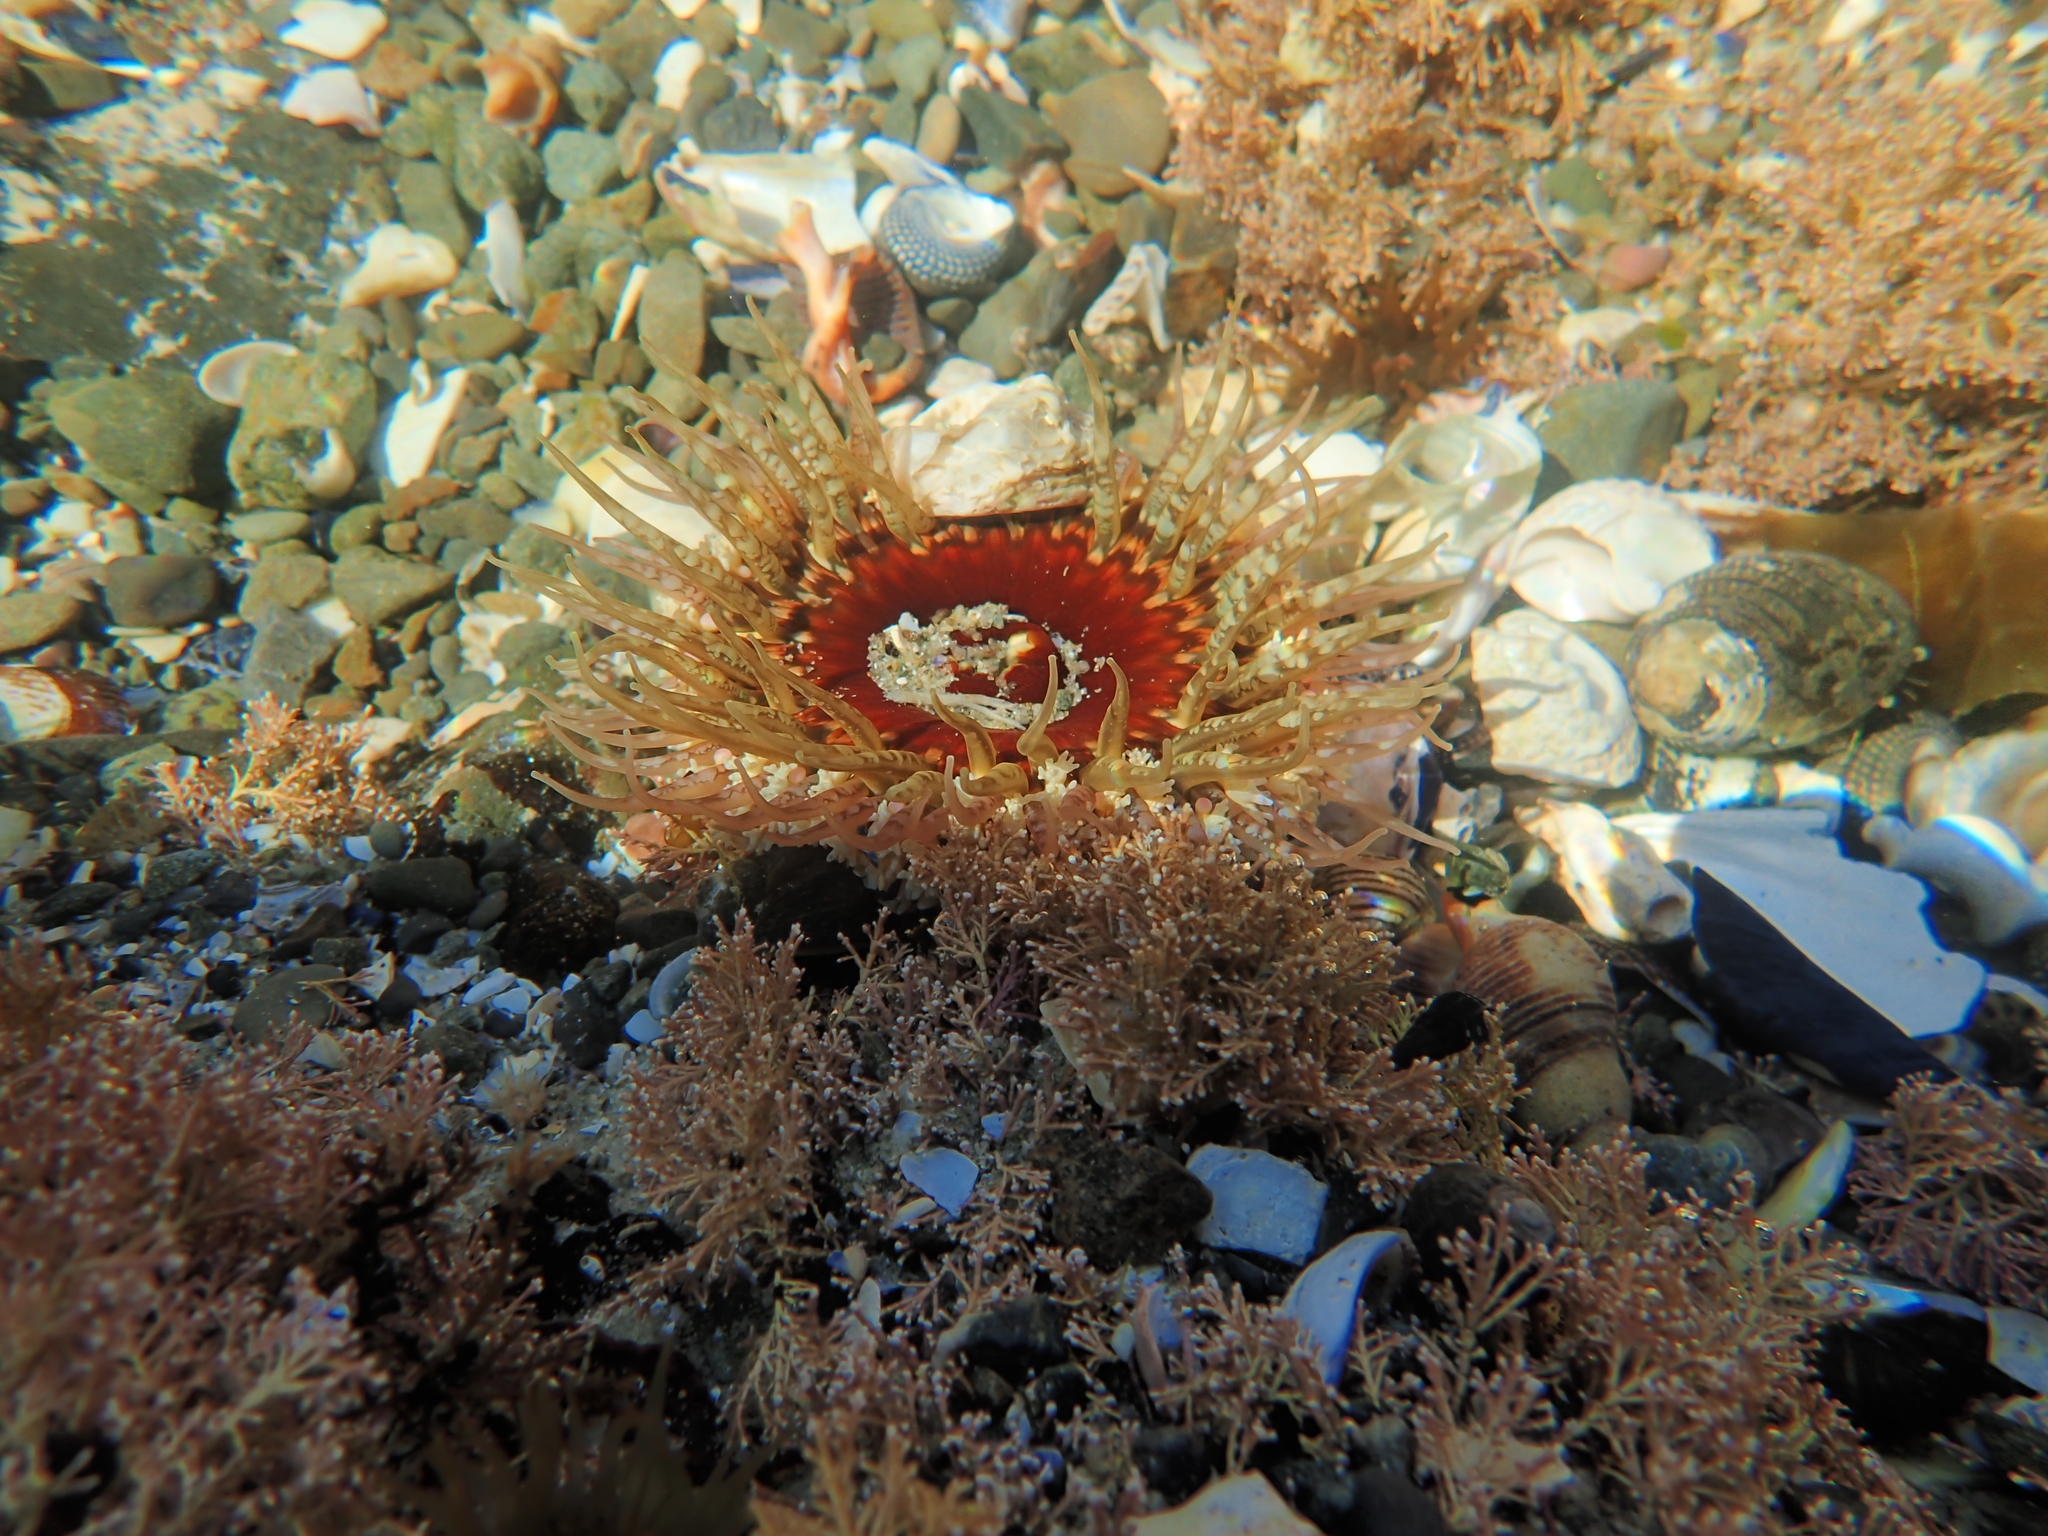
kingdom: Animalia
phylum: Cnidaria
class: Anthozoa
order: Actiniaria
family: Actiniidae
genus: Oulactis
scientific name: Oulactis muscosa
